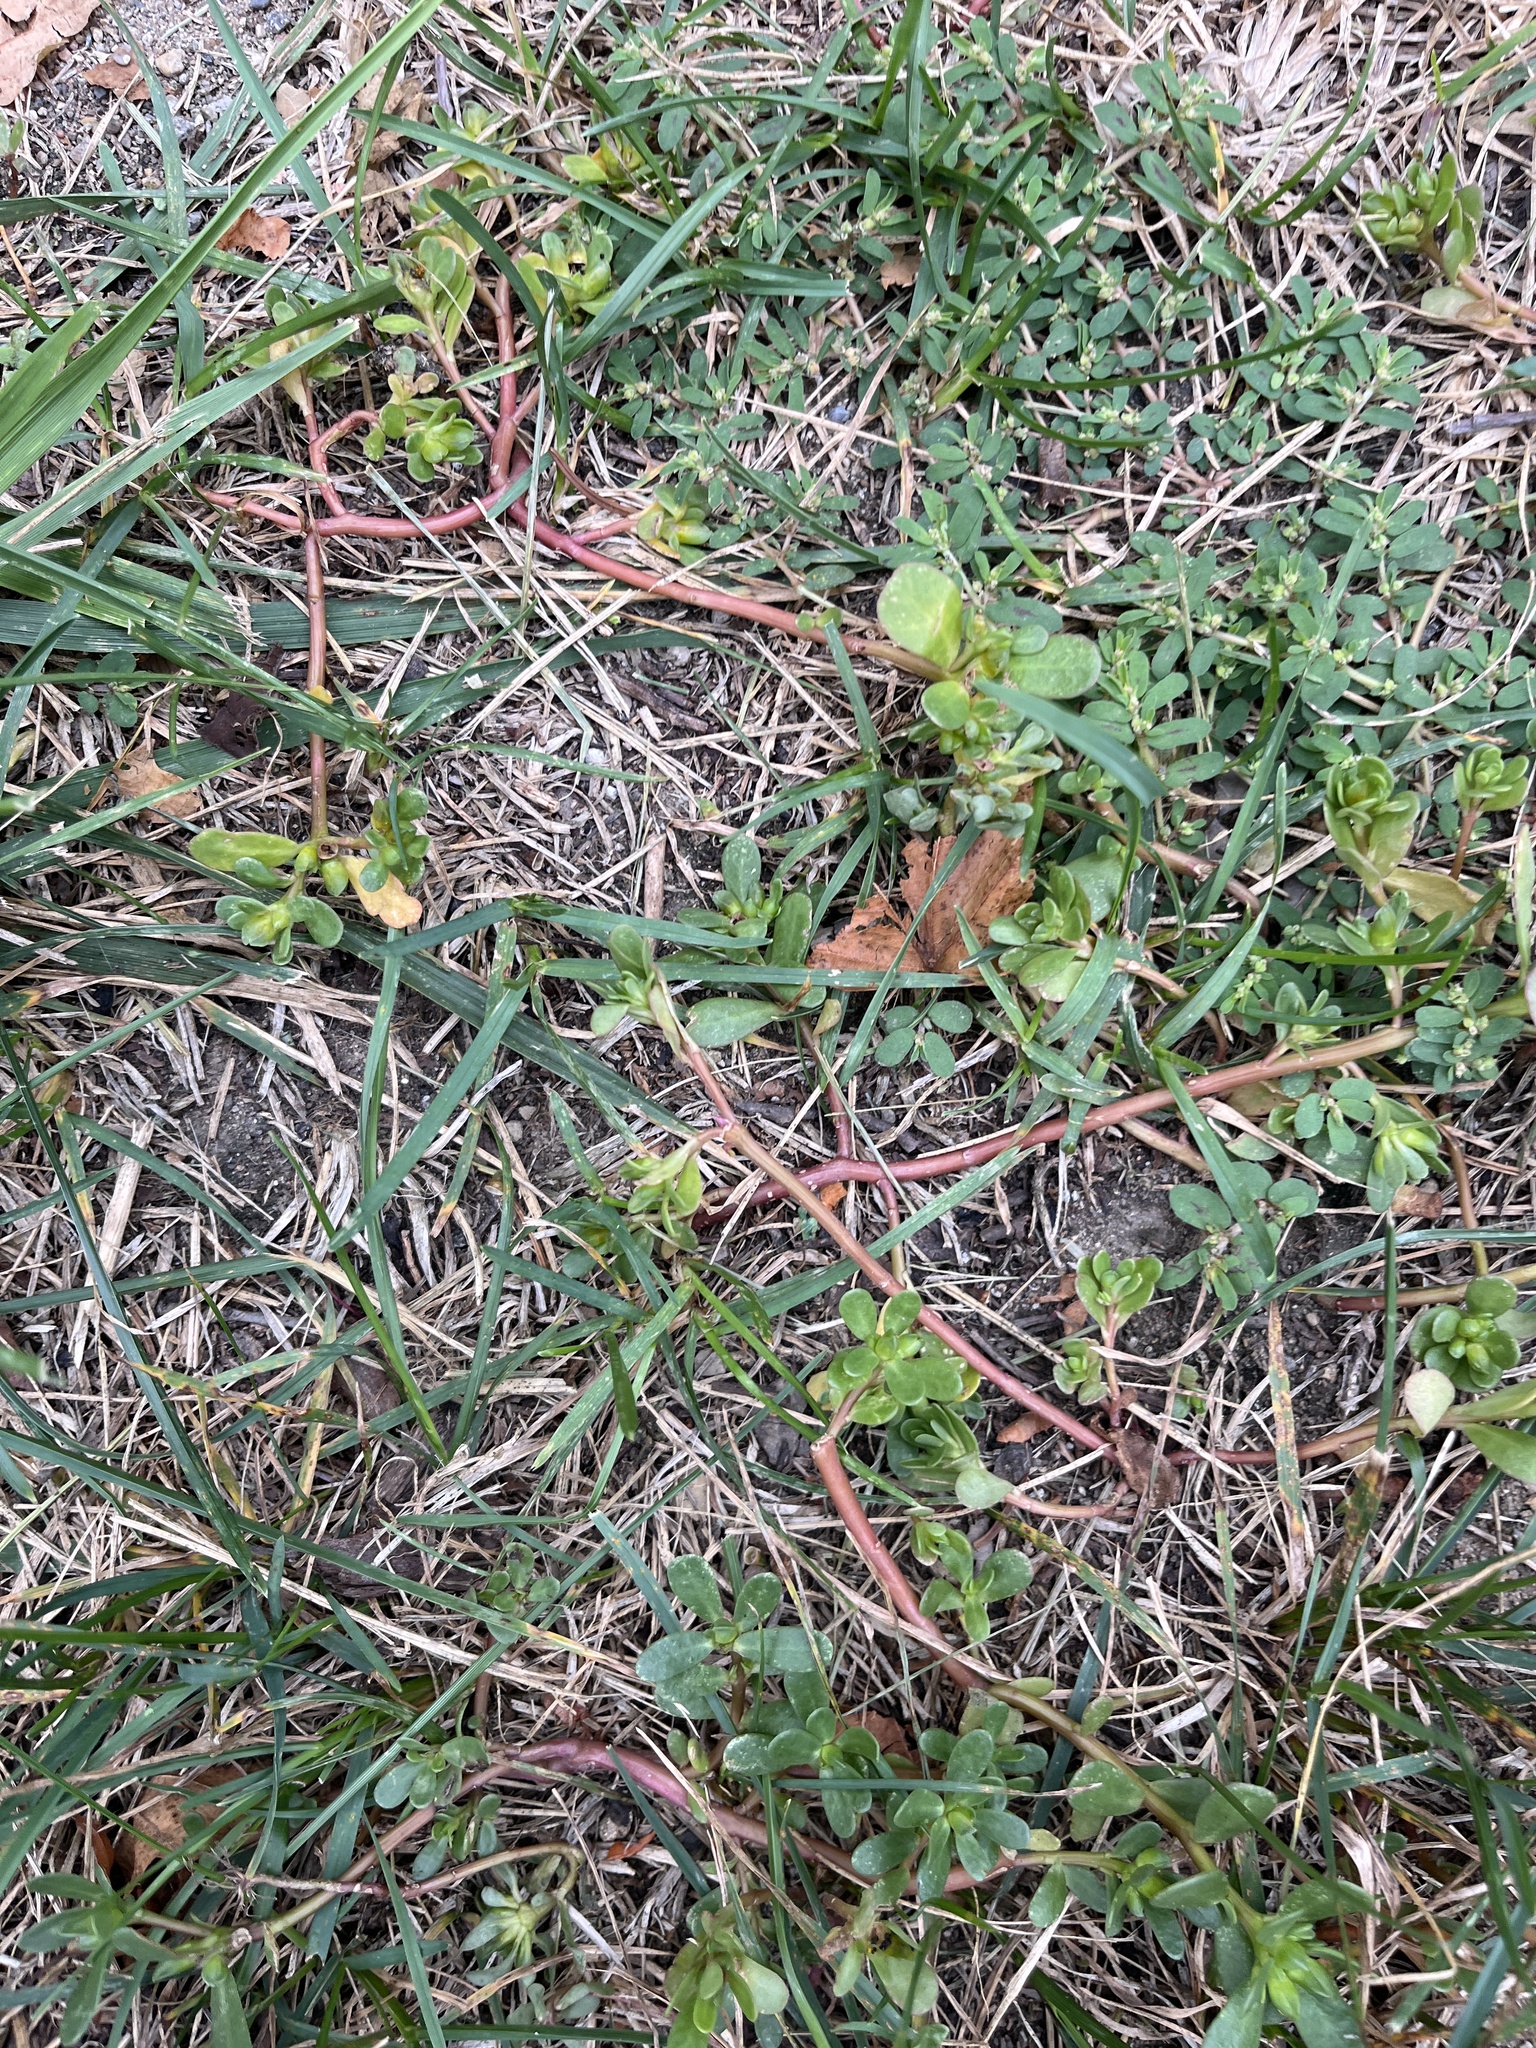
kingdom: Plantae
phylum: Tracheophyta
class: Magnoliopsida
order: Caryophyllales
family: Portulacaceae
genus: Portulaca
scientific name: Portulaca oleracea
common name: Common purslane
